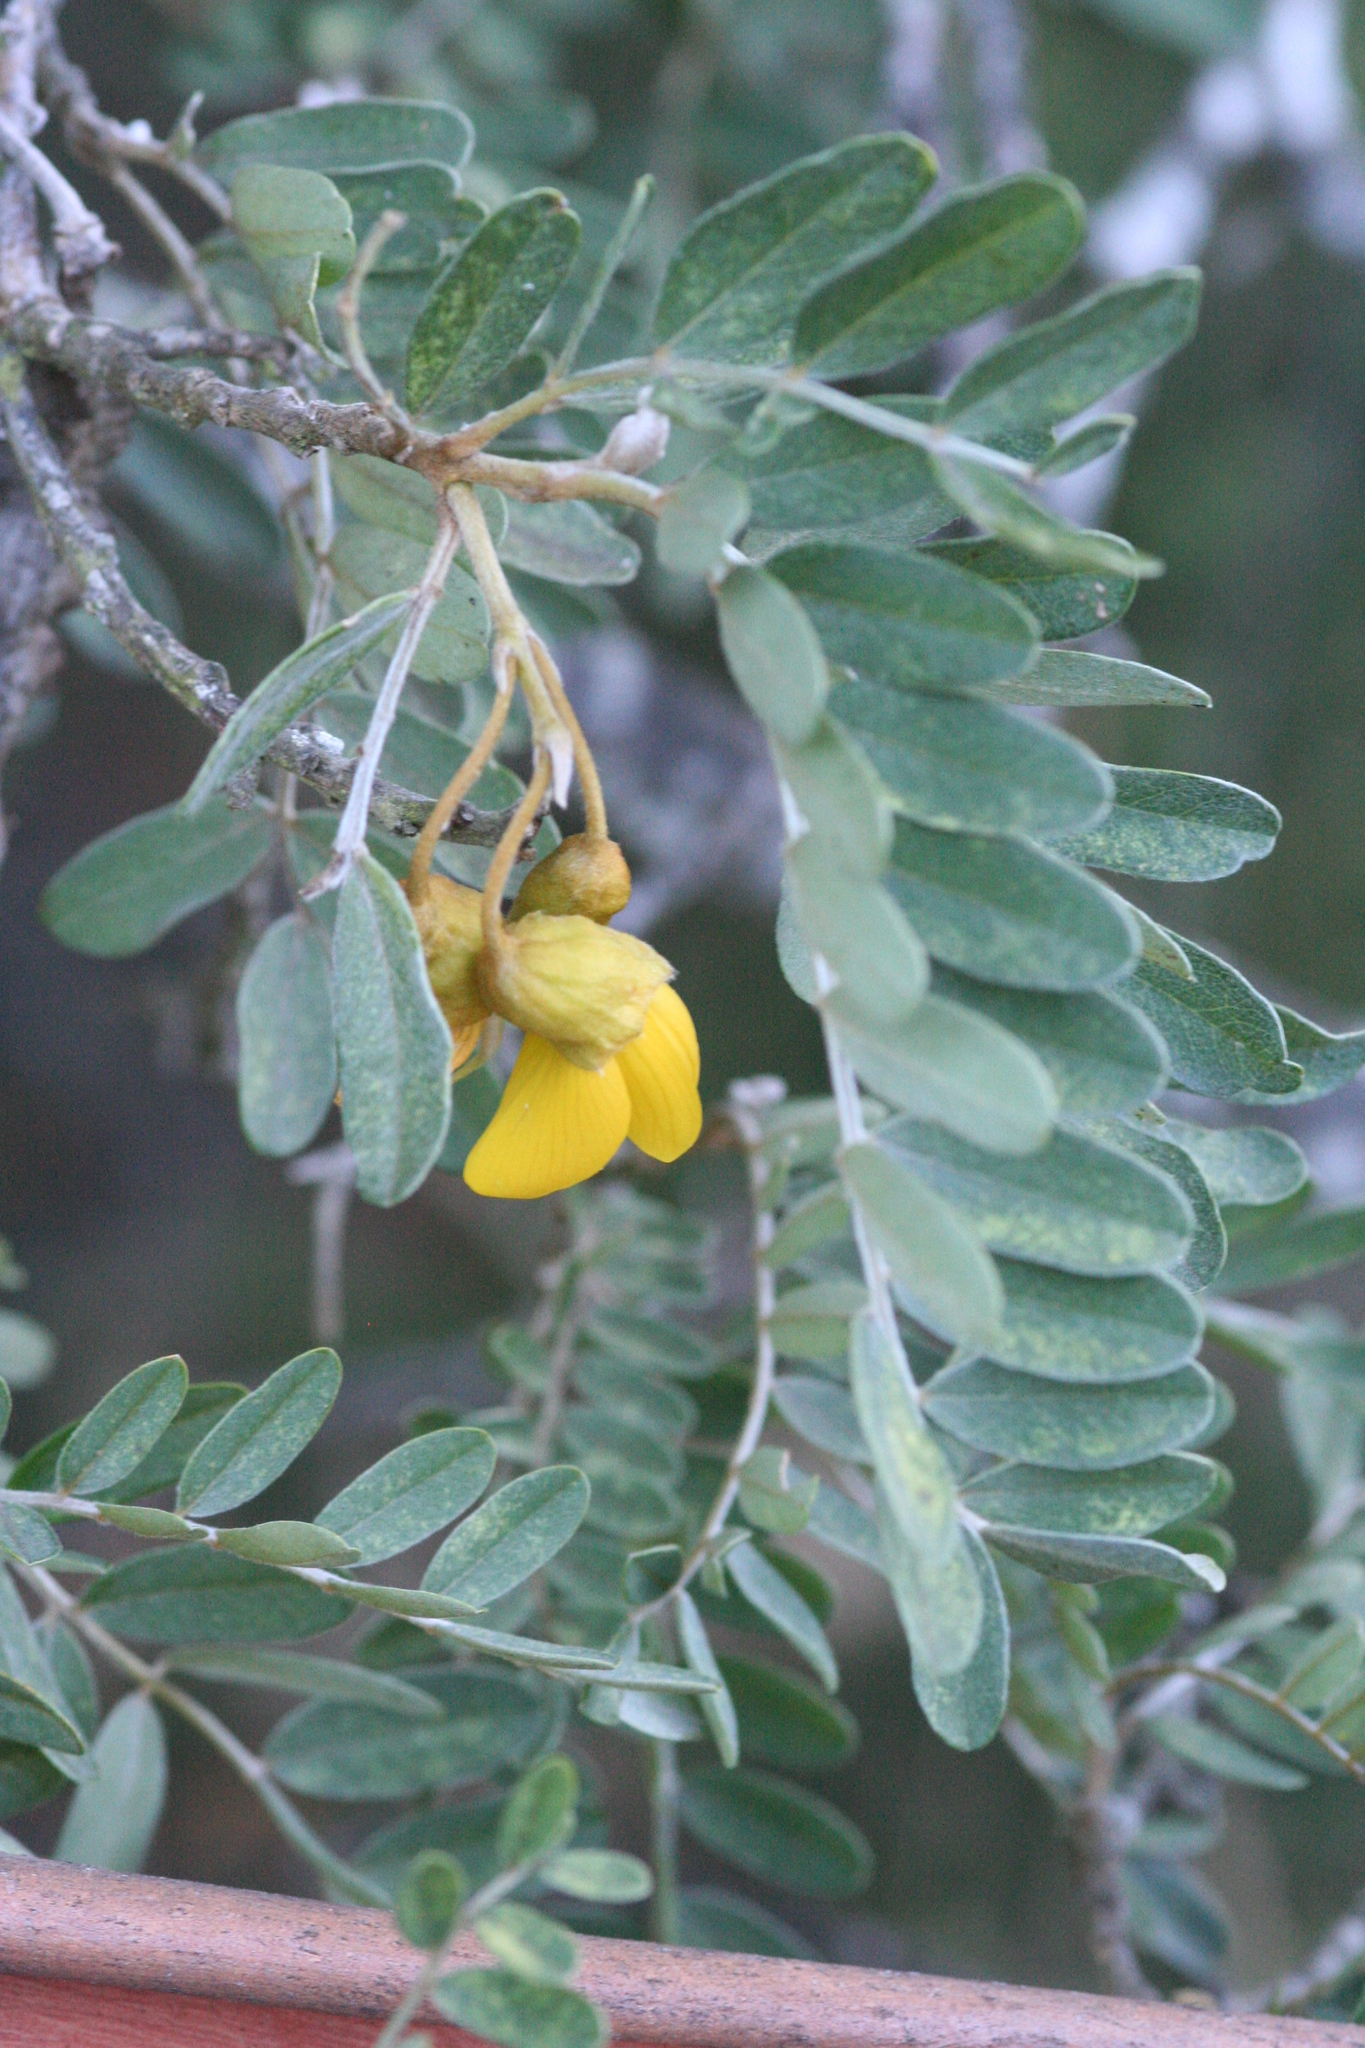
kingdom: Plantae
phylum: Tracheophyta
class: Magnoliopsida
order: Fabales
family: Fabaceae
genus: Sophora
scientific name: Sophora chrysophylla
